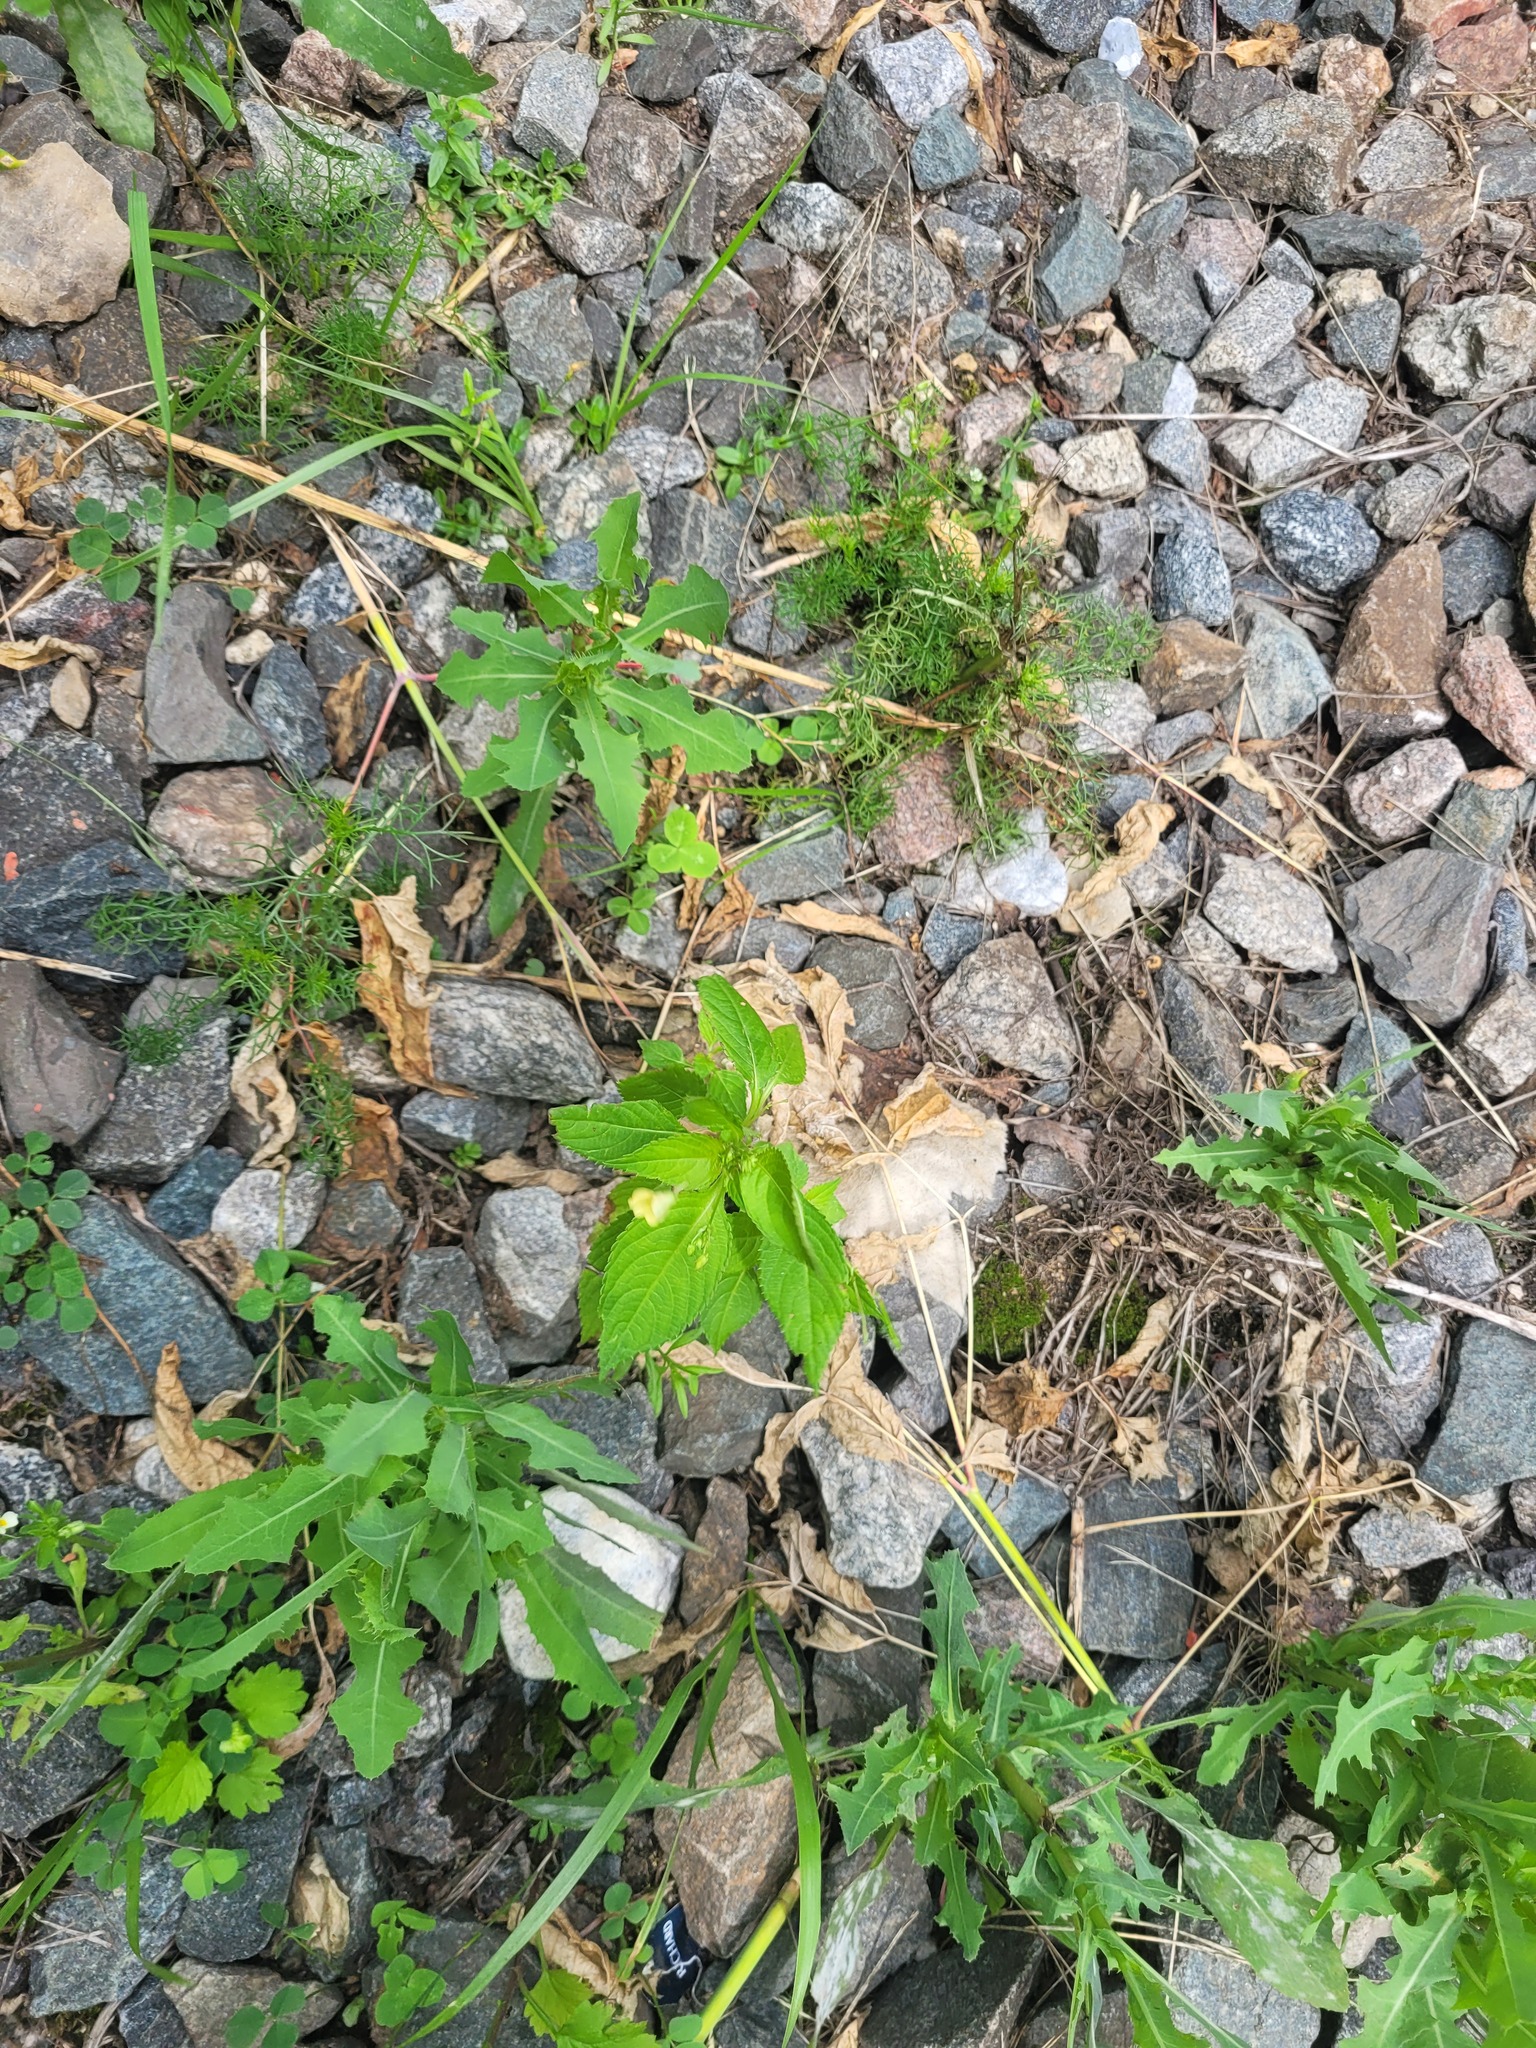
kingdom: Plantae
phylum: Tracheophyta
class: Magnoliopsida
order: Ericales
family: Balsaminaceae
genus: Impatiens
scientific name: Impatiens parviflora
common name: Small balsam
